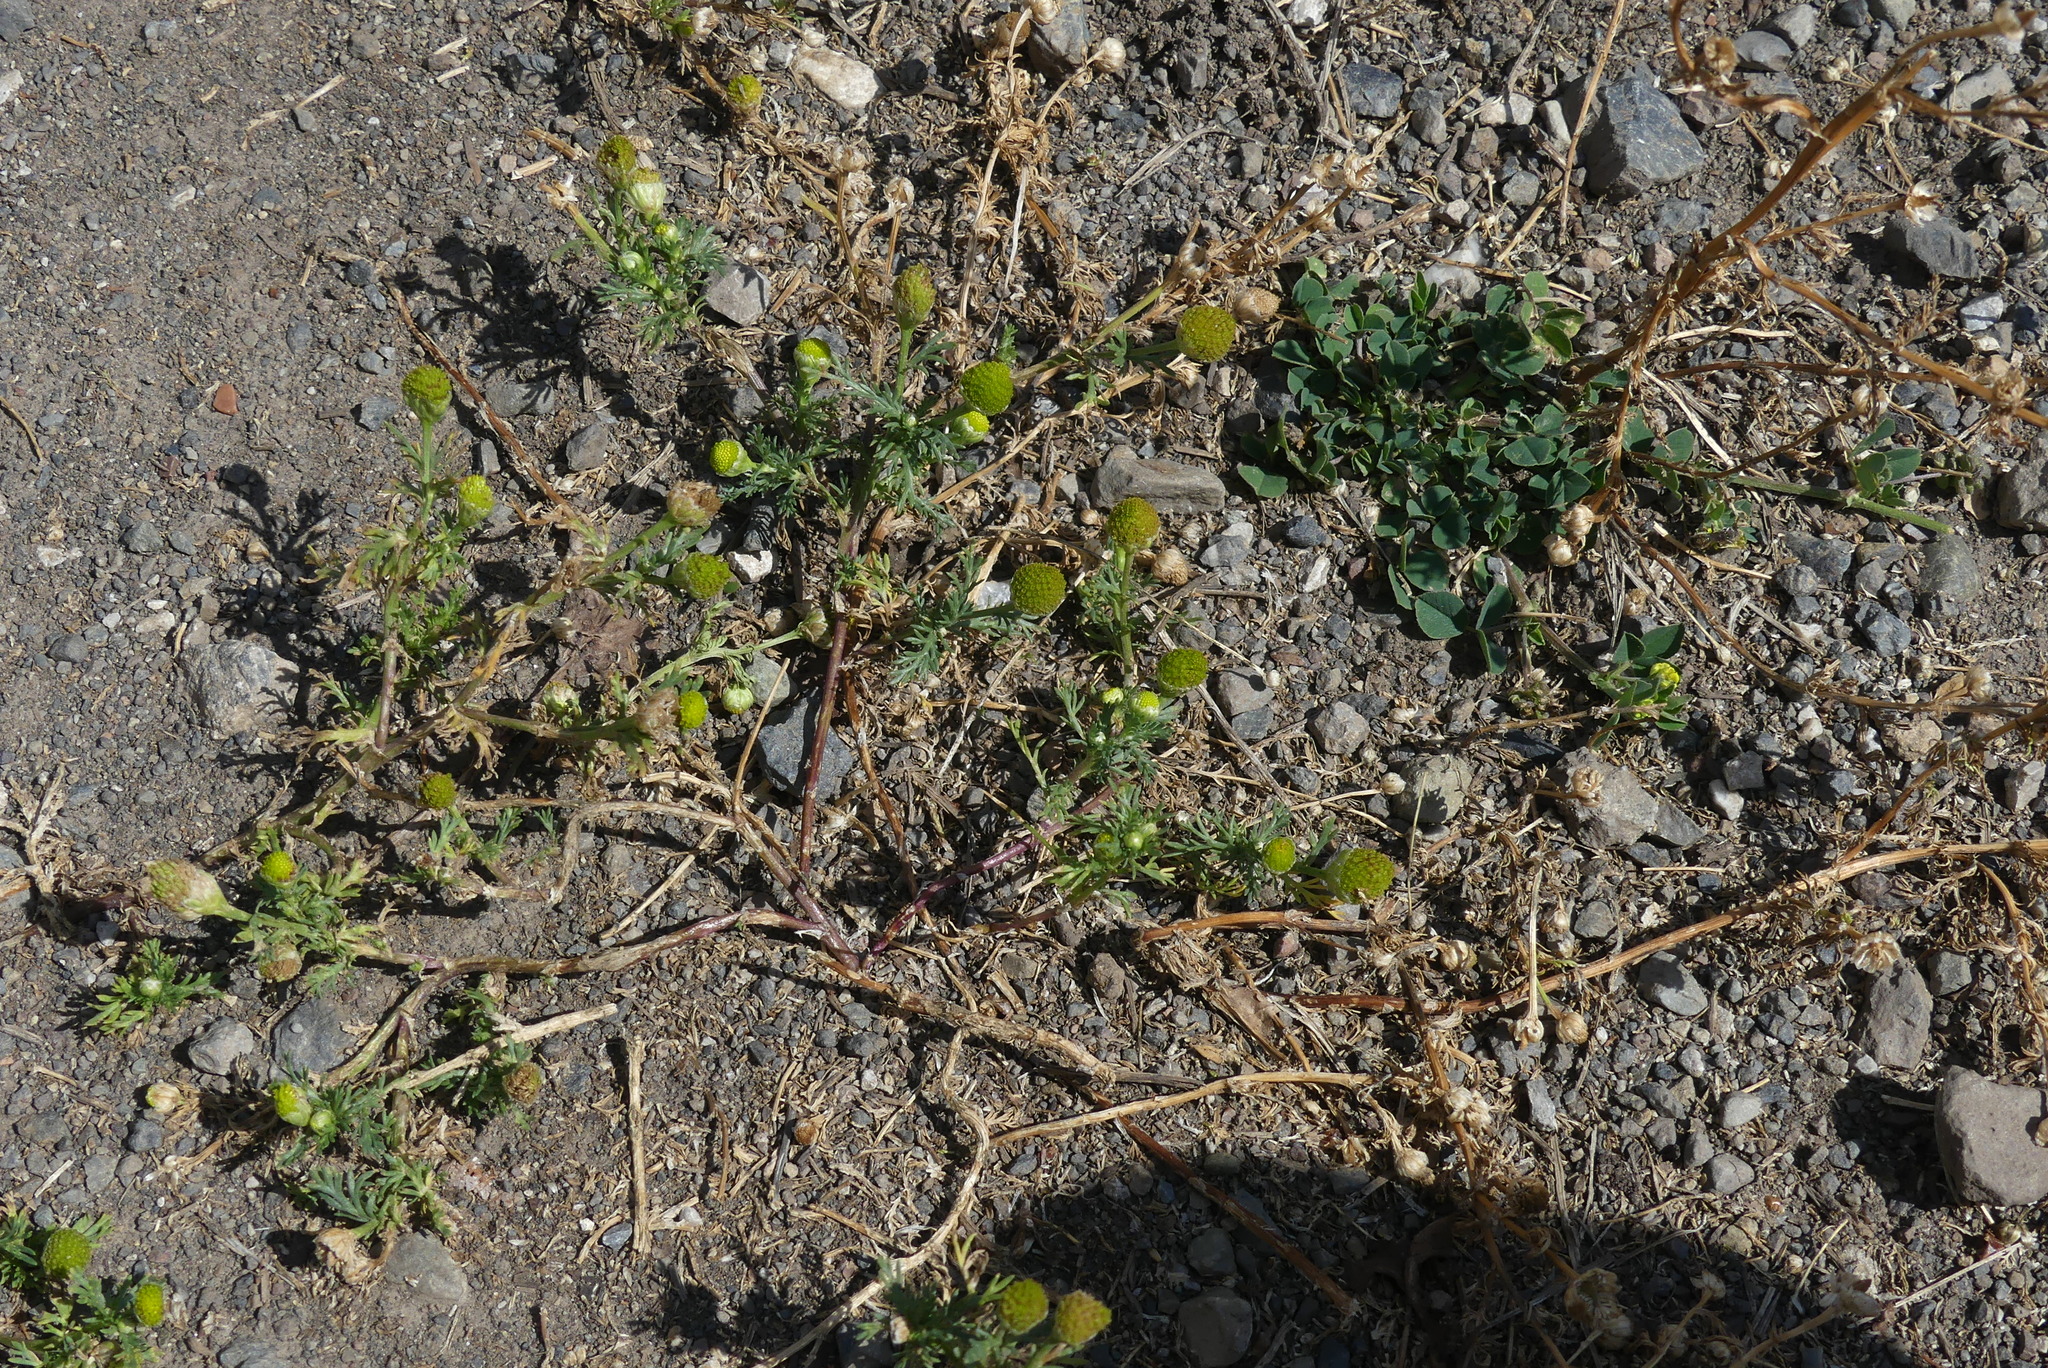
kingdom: Plantae
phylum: Tracheophyta
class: Magnoliopsida
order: Asterales
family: Asteraceae
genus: Matricaria
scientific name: Matricaria discoidea
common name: Disc mayweed
